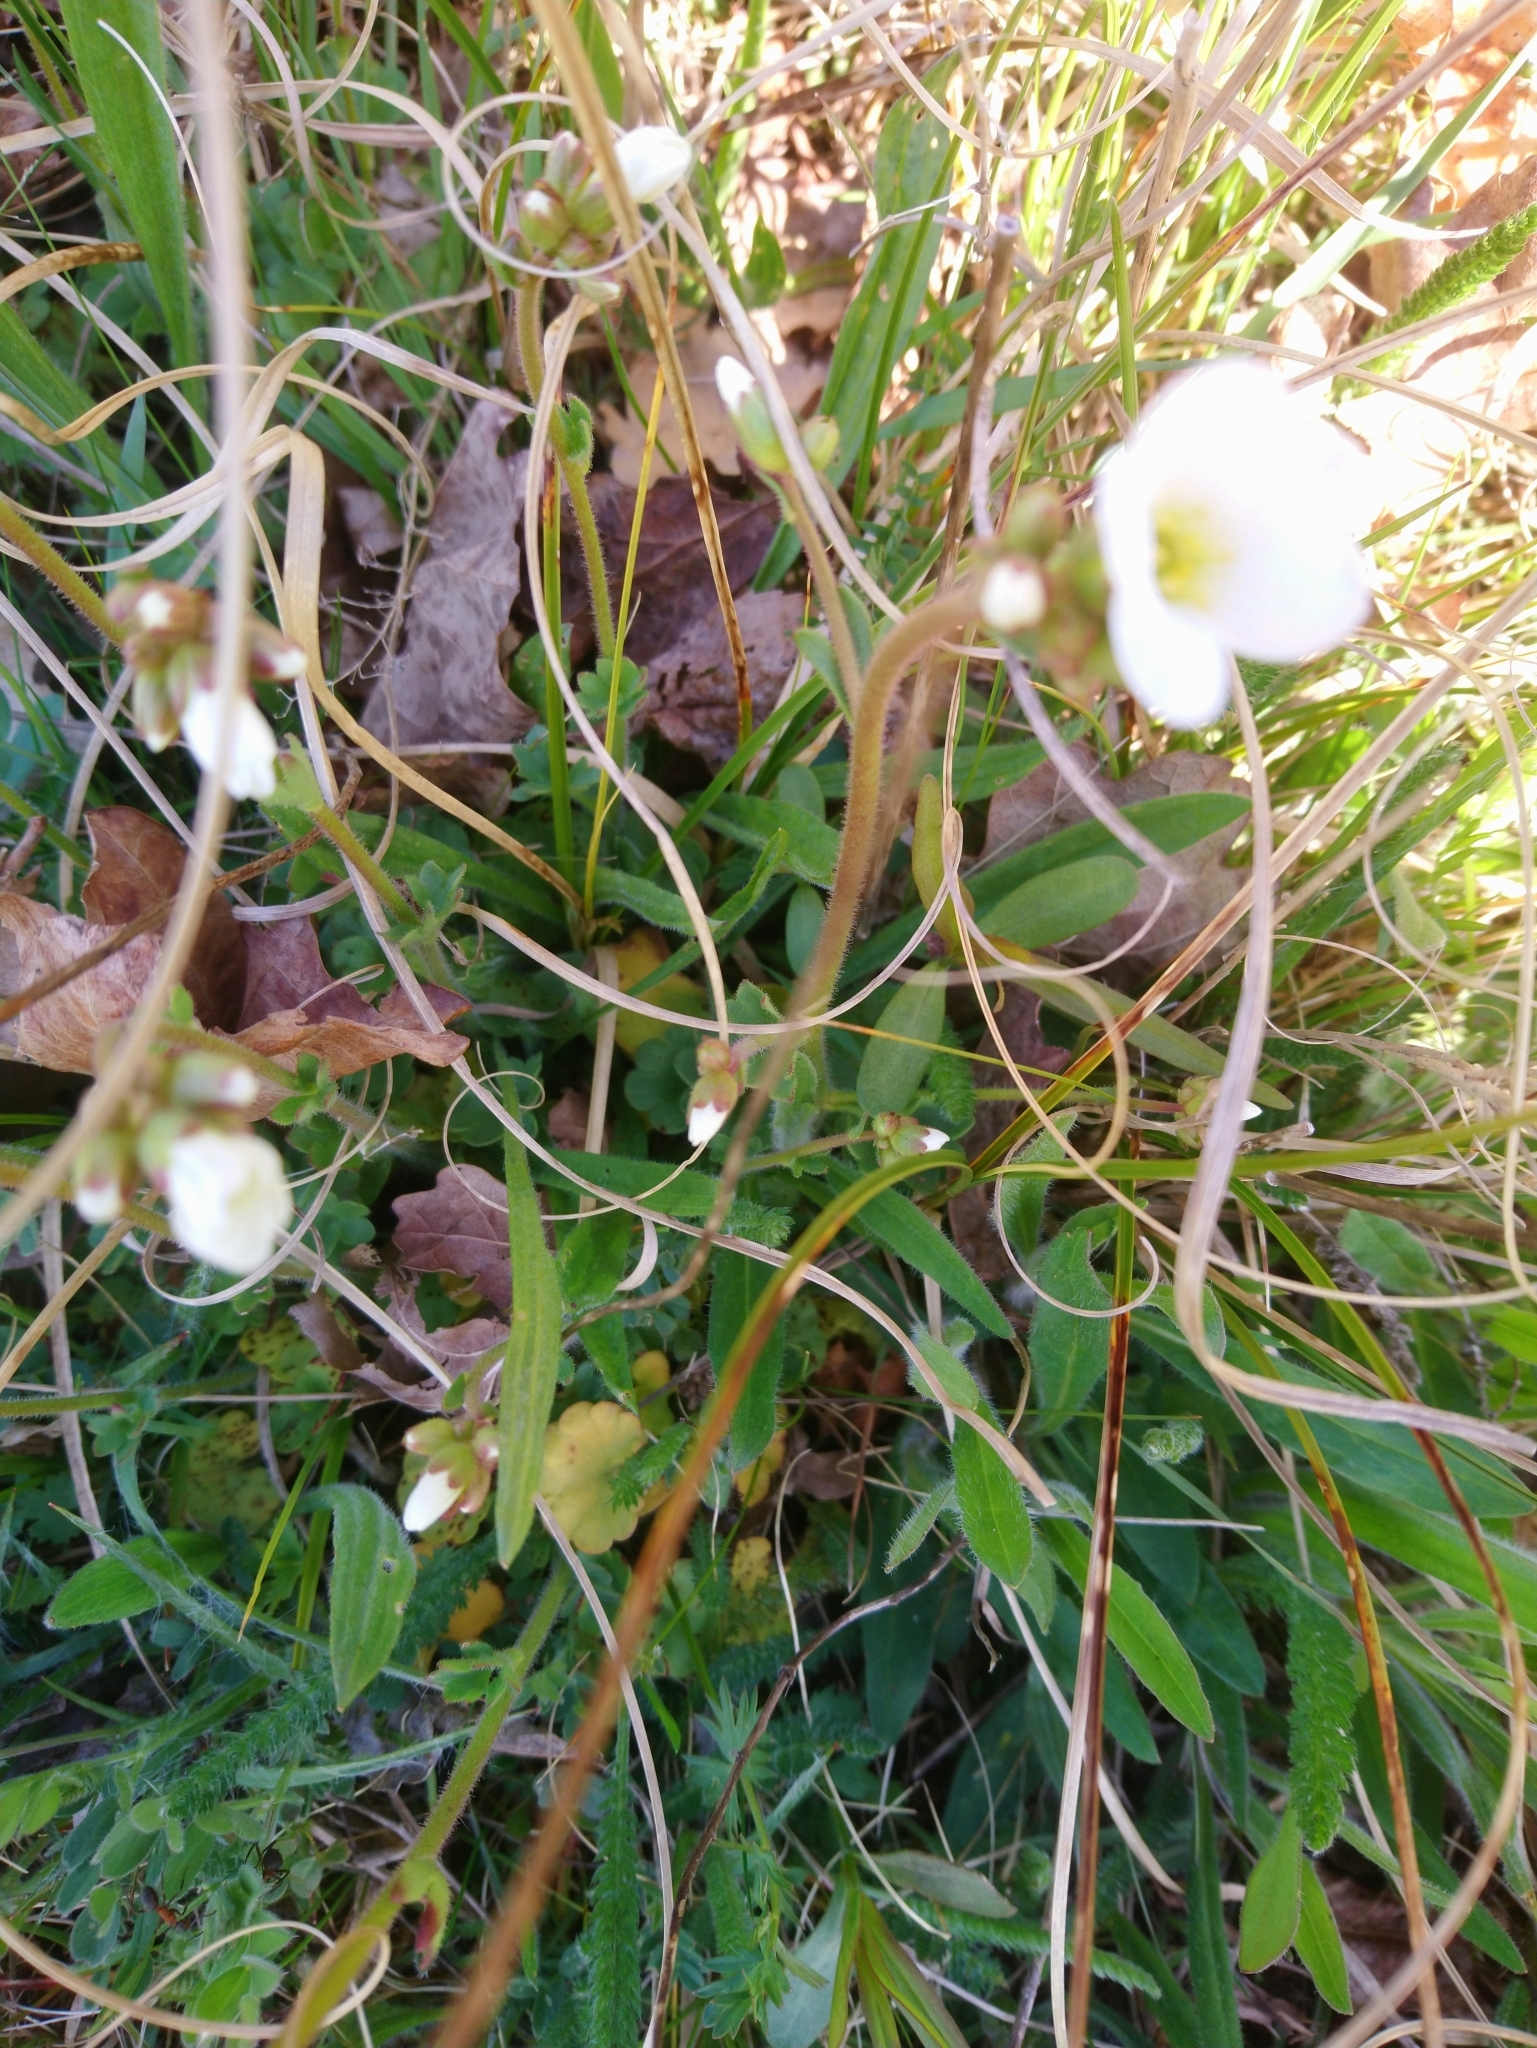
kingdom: Plantae
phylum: Tracheophyta
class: Magnoliopsida
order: Saxifragales
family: Saxifragaceae
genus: Saxifraga
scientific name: Saxifraga granulata
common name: Meadow saxifrage
